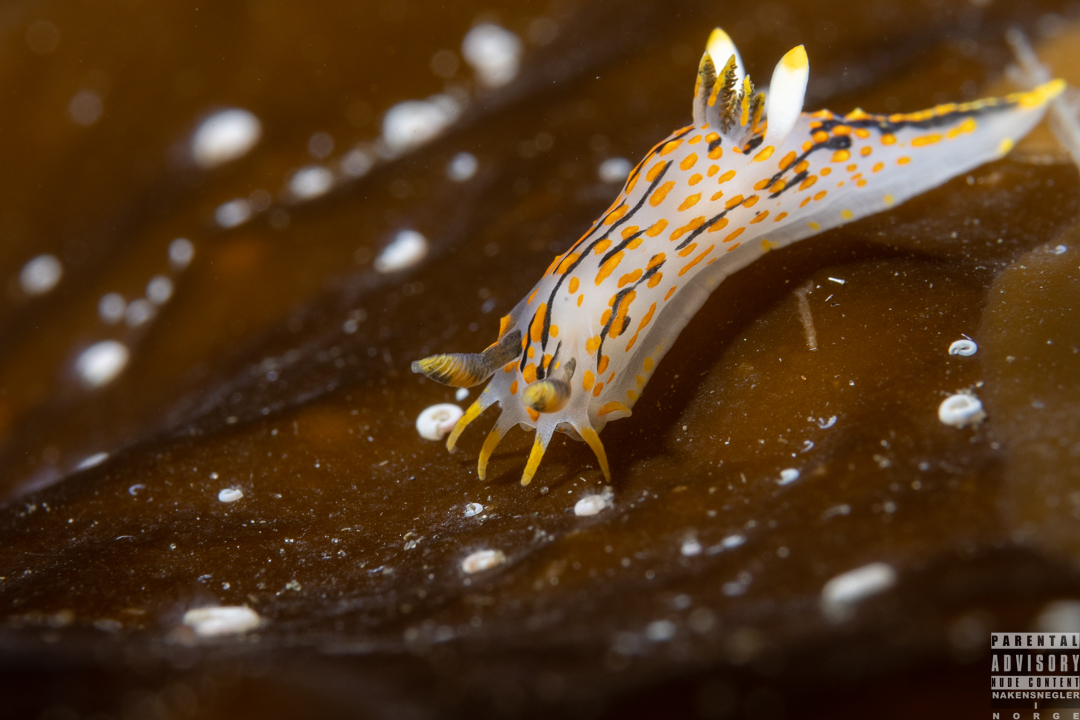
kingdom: Animalia
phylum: Mollusca
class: Gastropoda
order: Nudibranchia
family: Polyceridae
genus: Polycera
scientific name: Polycera quadrilineata
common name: Four-striped polycera
